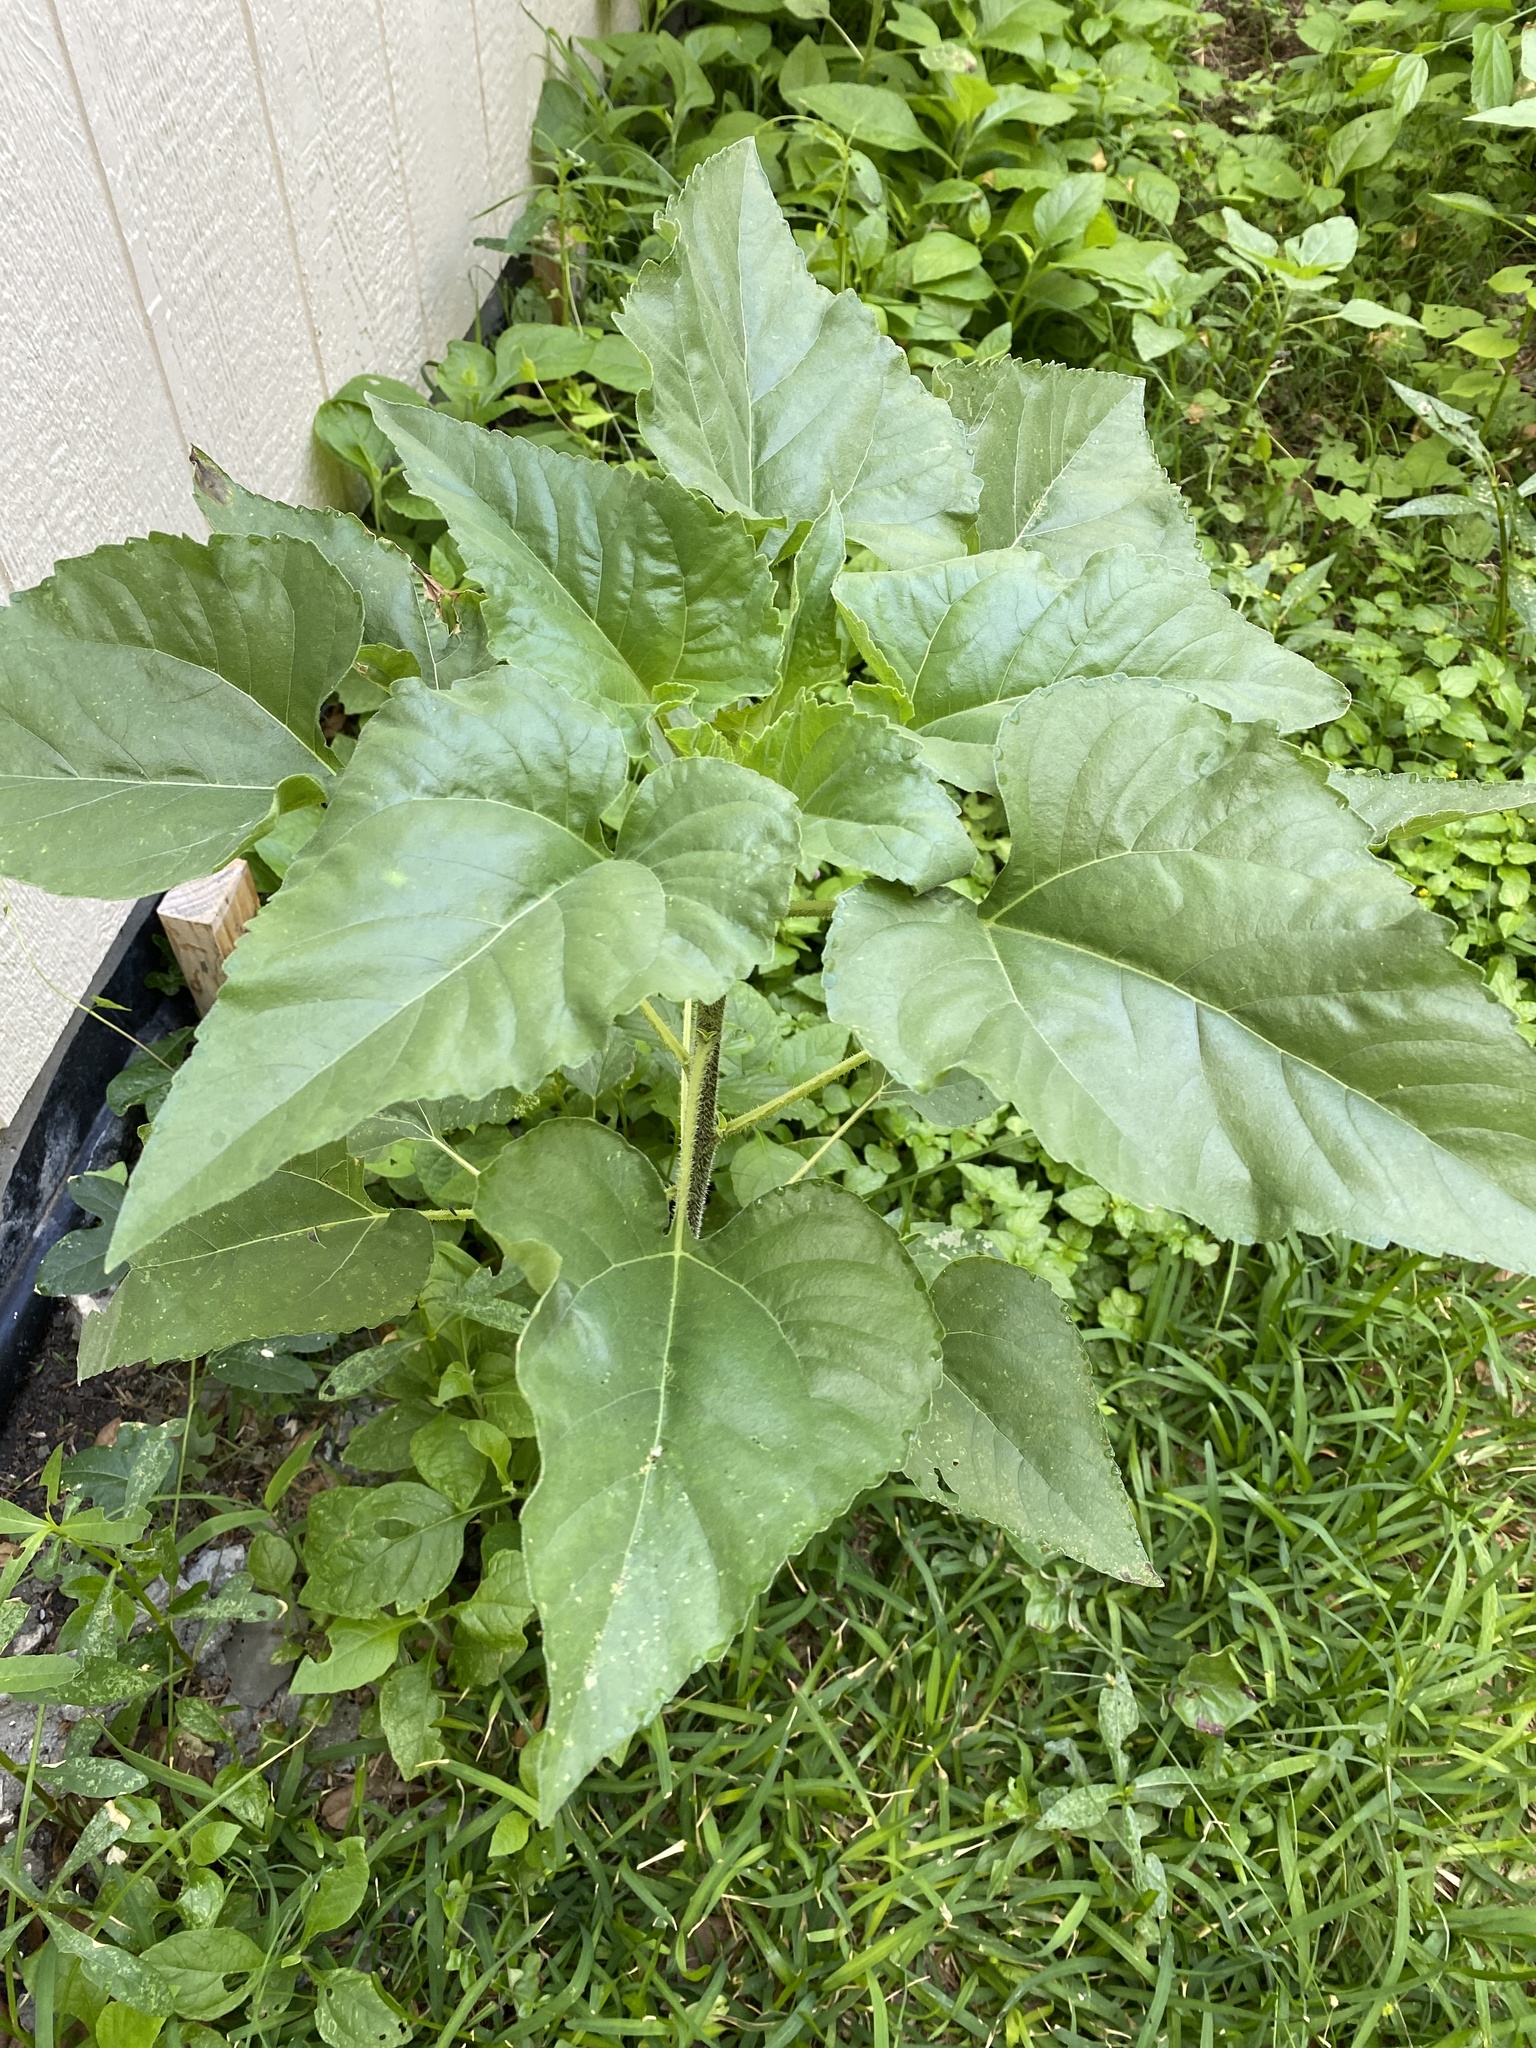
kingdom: Plantae
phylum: Tracheophyta
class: Magnoliopsida
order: Asterales
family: Asteraceae
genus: Helianthus
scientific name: Helianthus annuus
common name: Sunflower
